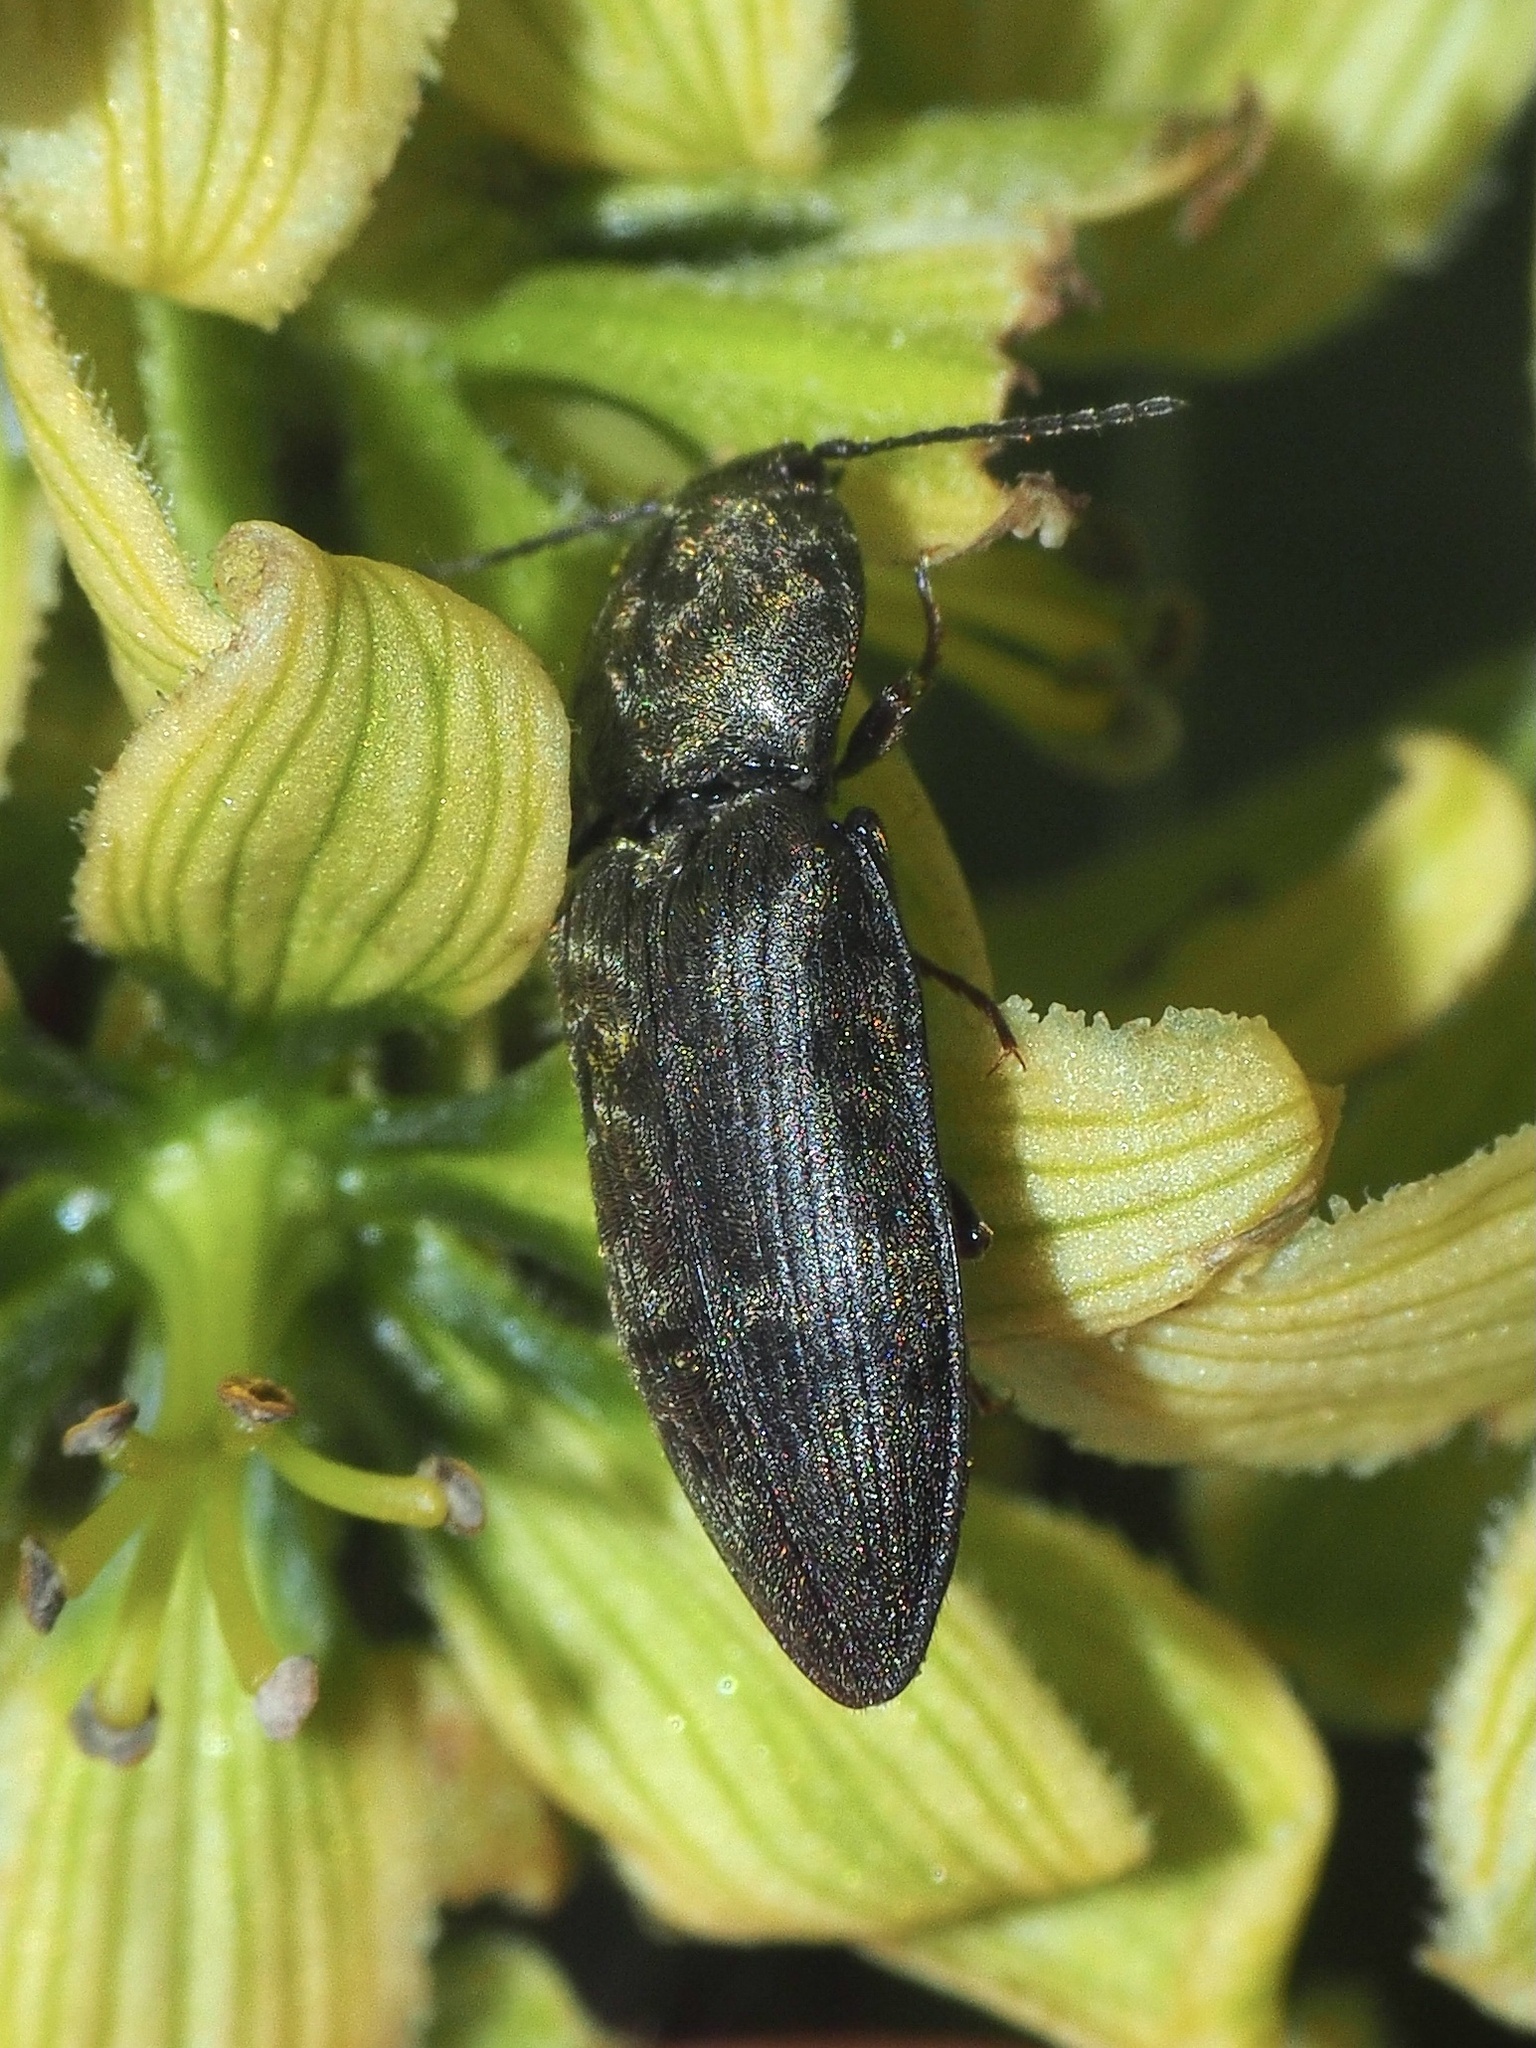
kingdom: Animalia
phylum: Arthropoda
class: Insecta
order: Coleoptera
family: Elateridae
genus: Prosternon
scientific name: Prosternon tessellatum
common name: Chequered click beetle
